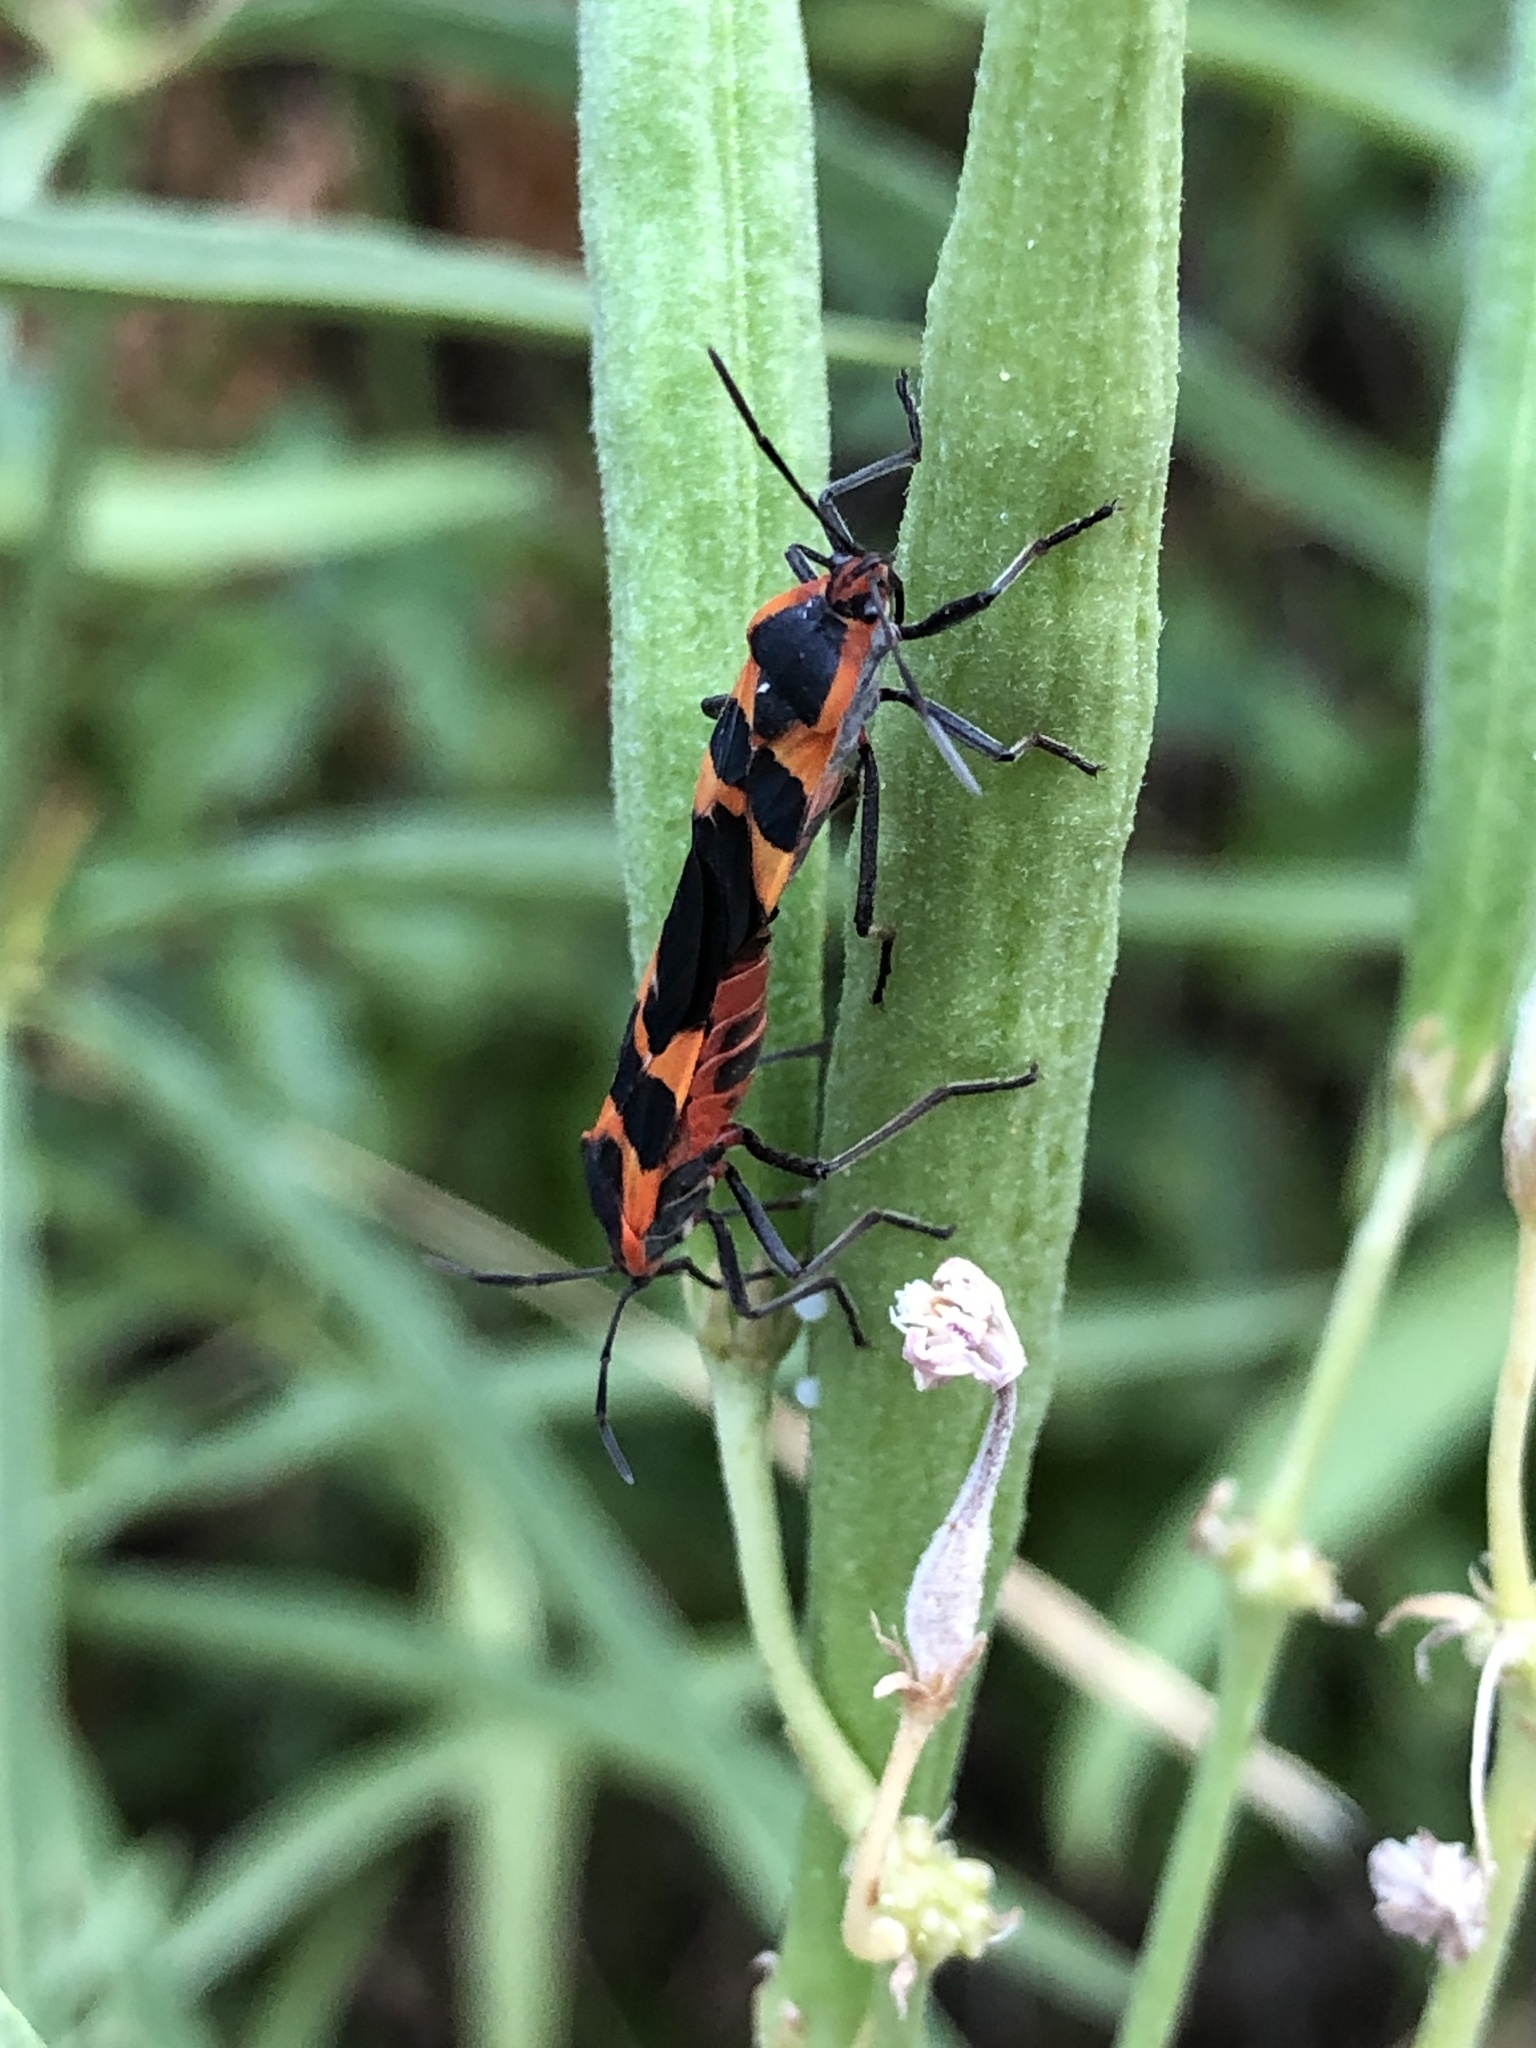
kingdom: Animalia
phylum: Arthropoda
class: Insecta
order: Hemiptera
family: Lygaeidae
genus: Oncopeltus
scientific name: Oncopeltus fasciatus
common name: Large milkweed bug
